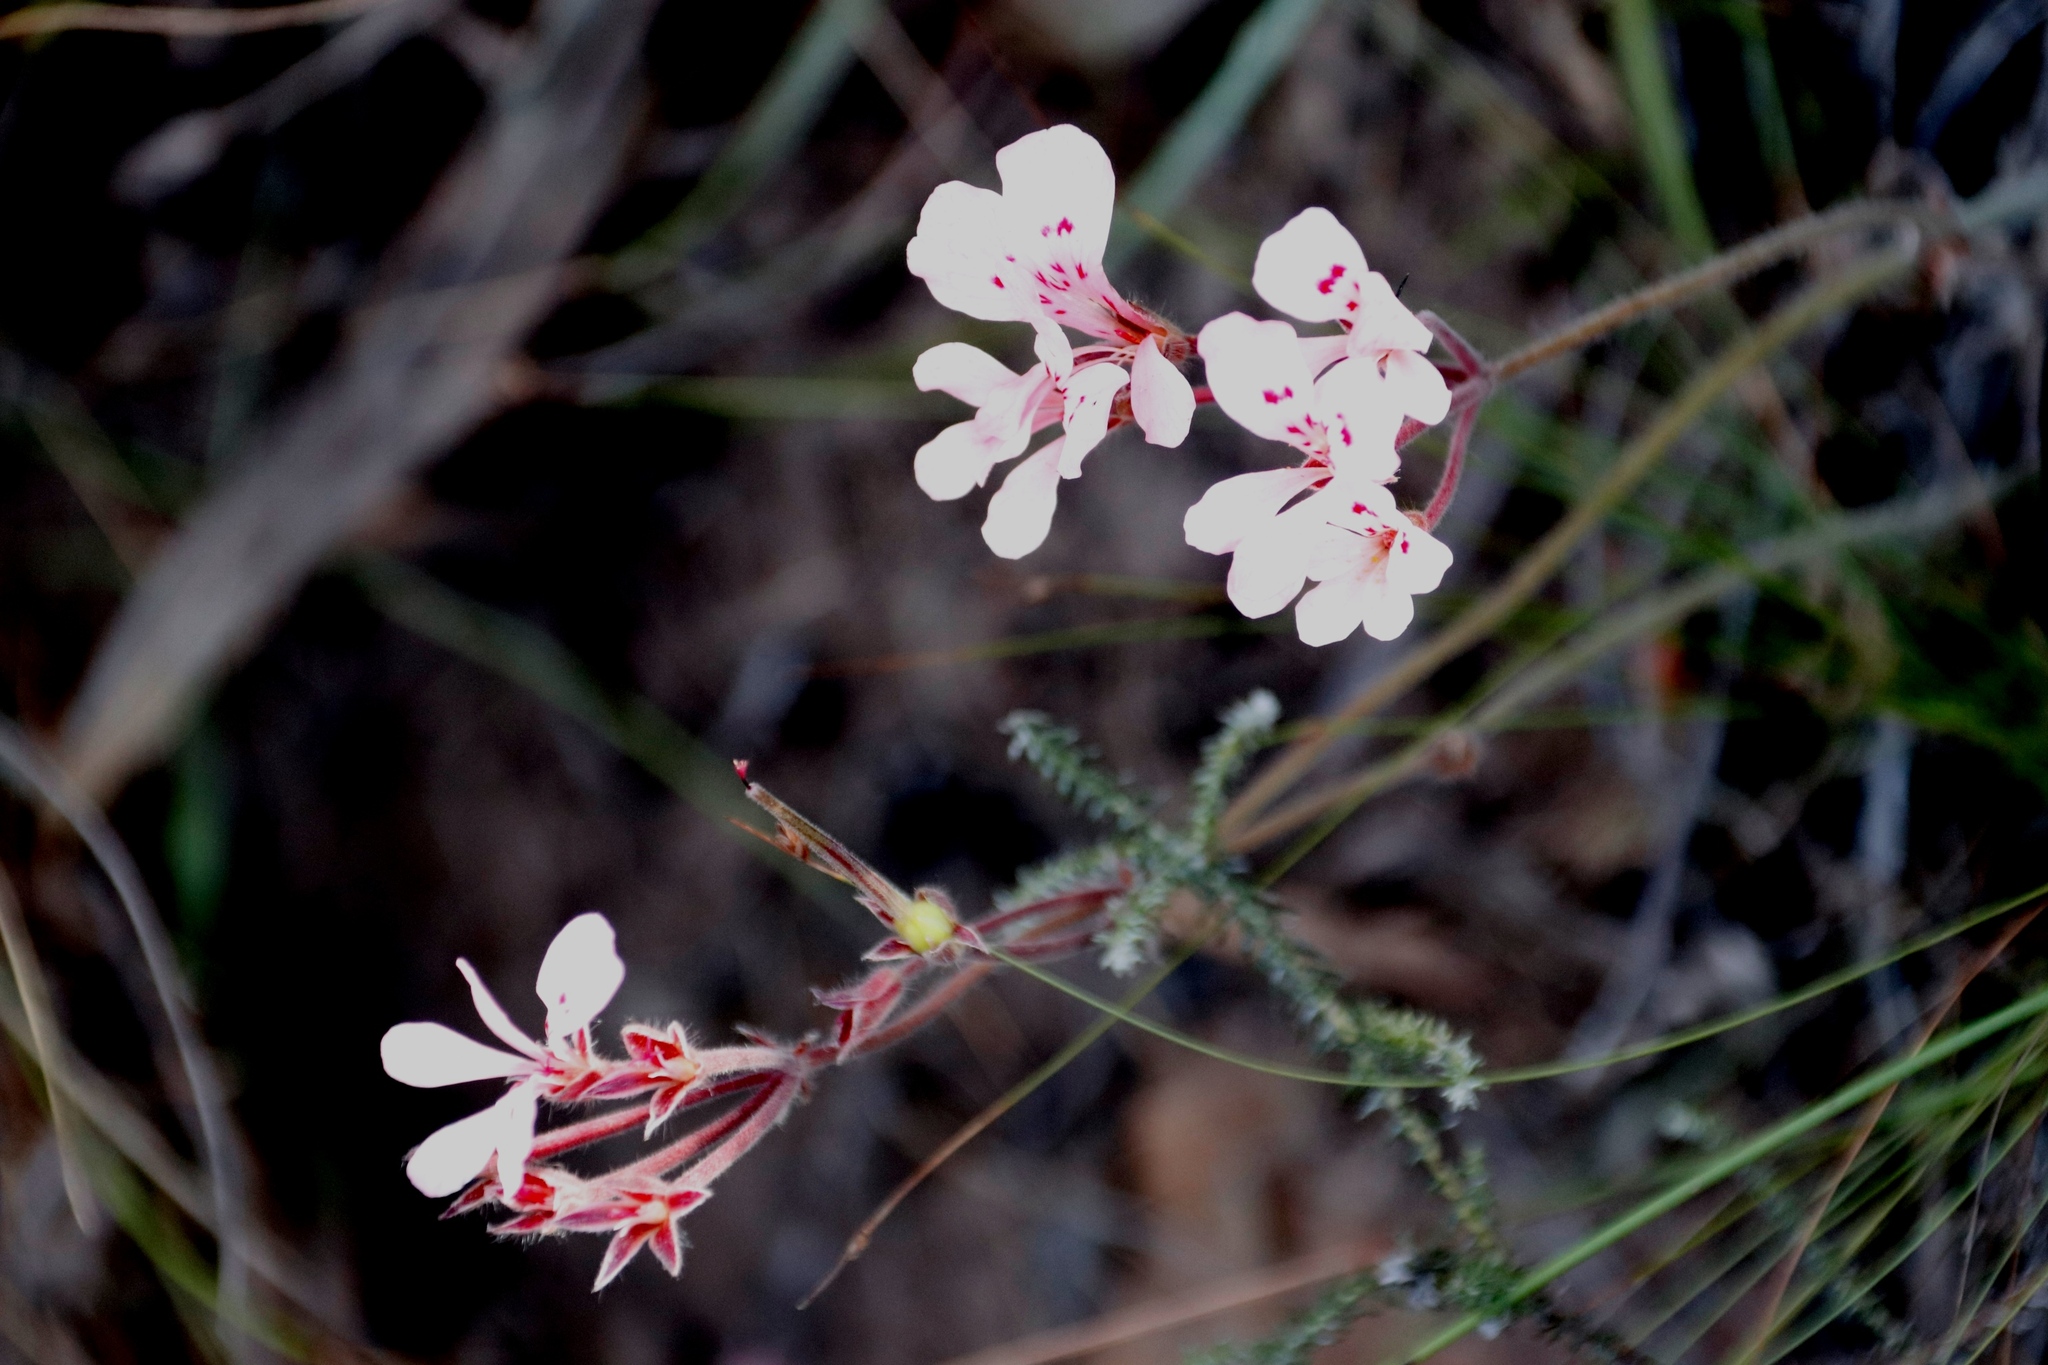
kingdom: Plantae
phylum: Tracheophyta
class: Magnoliopsida
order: Geraniales
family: Geraniaceae
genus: Pelargonium
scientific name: Pelargonium pinnatum
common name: Pinnated pelargonium
